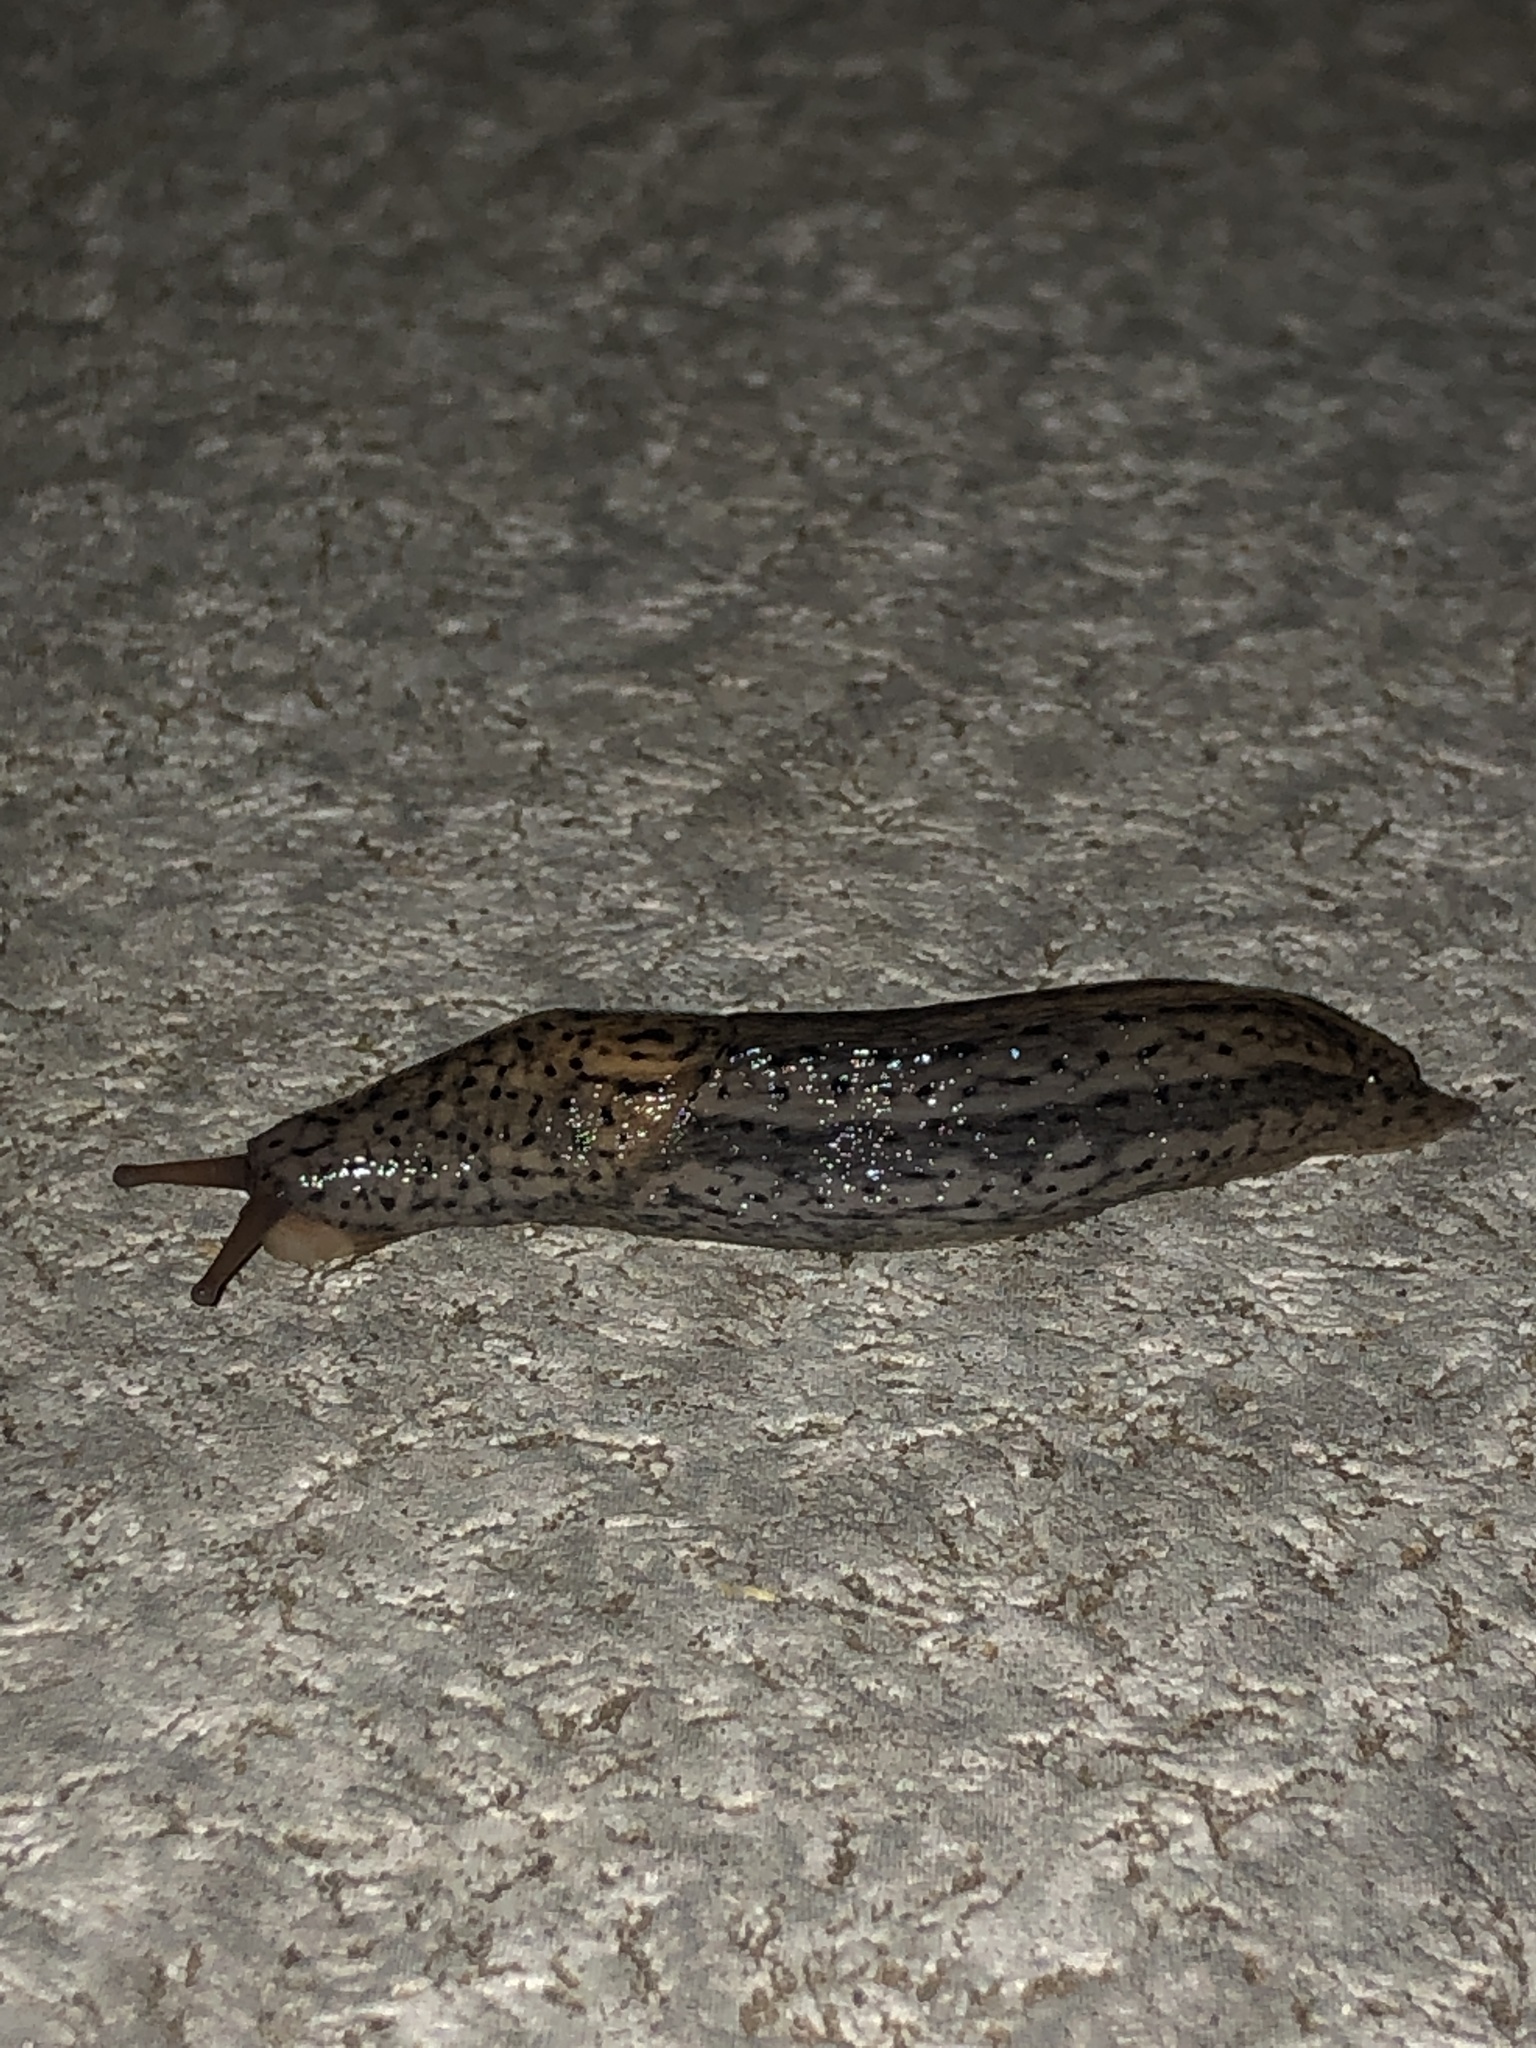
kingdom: Animalia
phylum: Mollusca
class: Gastropoda
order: Stylommatophora
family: Limacidae
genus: Limax
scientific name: Limax maximus
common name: Great grey slug
